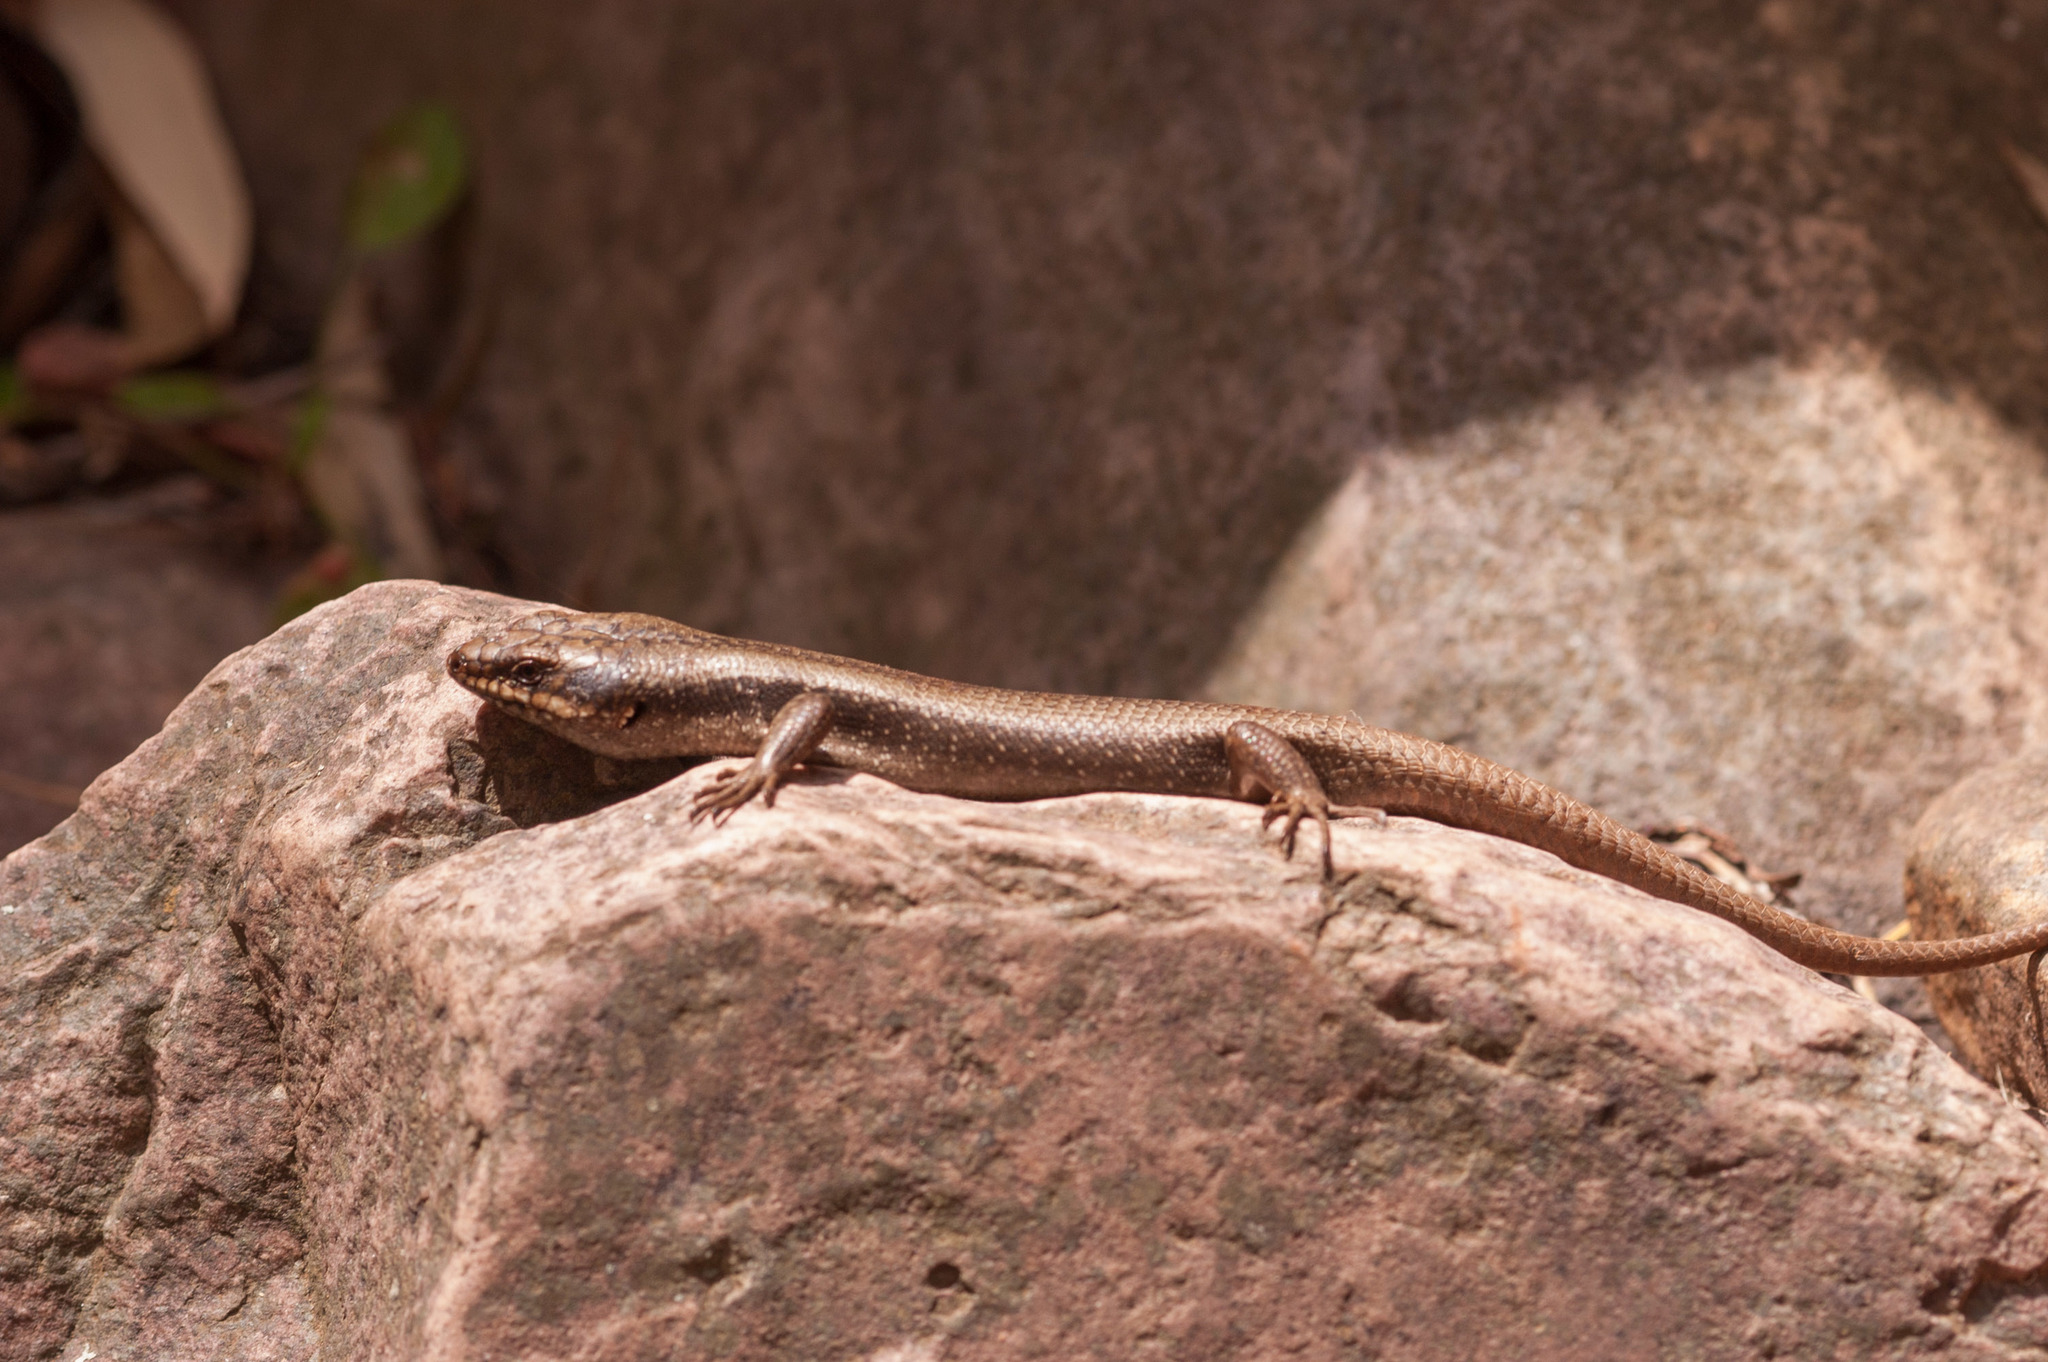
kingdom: Animalia
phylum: Chordata
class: Squamata
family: Scincidae
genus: Egernia
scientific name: Egernia striolata
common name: Tree skink
